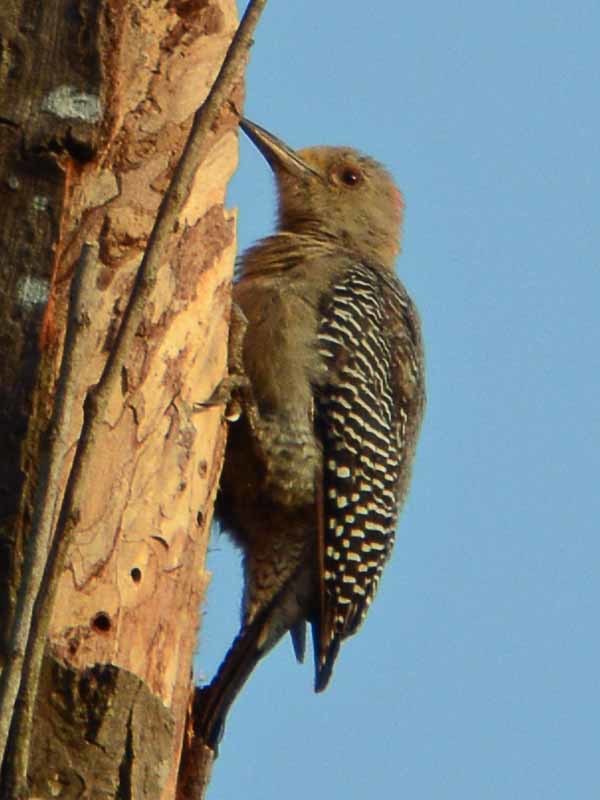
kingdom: Animalia
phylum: Chordata
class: Aves
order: Piciformes
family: Picidae
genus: Melanerpes
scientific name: Melanerpes aurifrons
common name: Golden-fronted woodpecker
